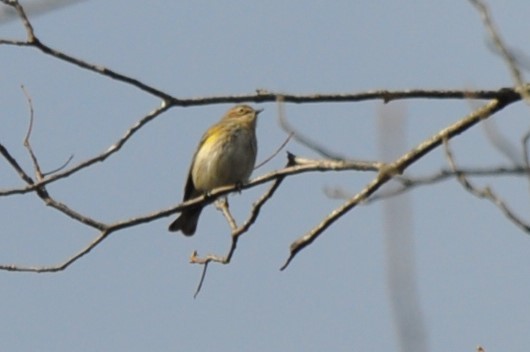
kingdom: Animalia
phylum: Chordata
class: Aves
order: Passeriformes
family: Parulidae
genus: Setophaga
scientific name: Setophaga coronata
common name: Myrtle warbler
